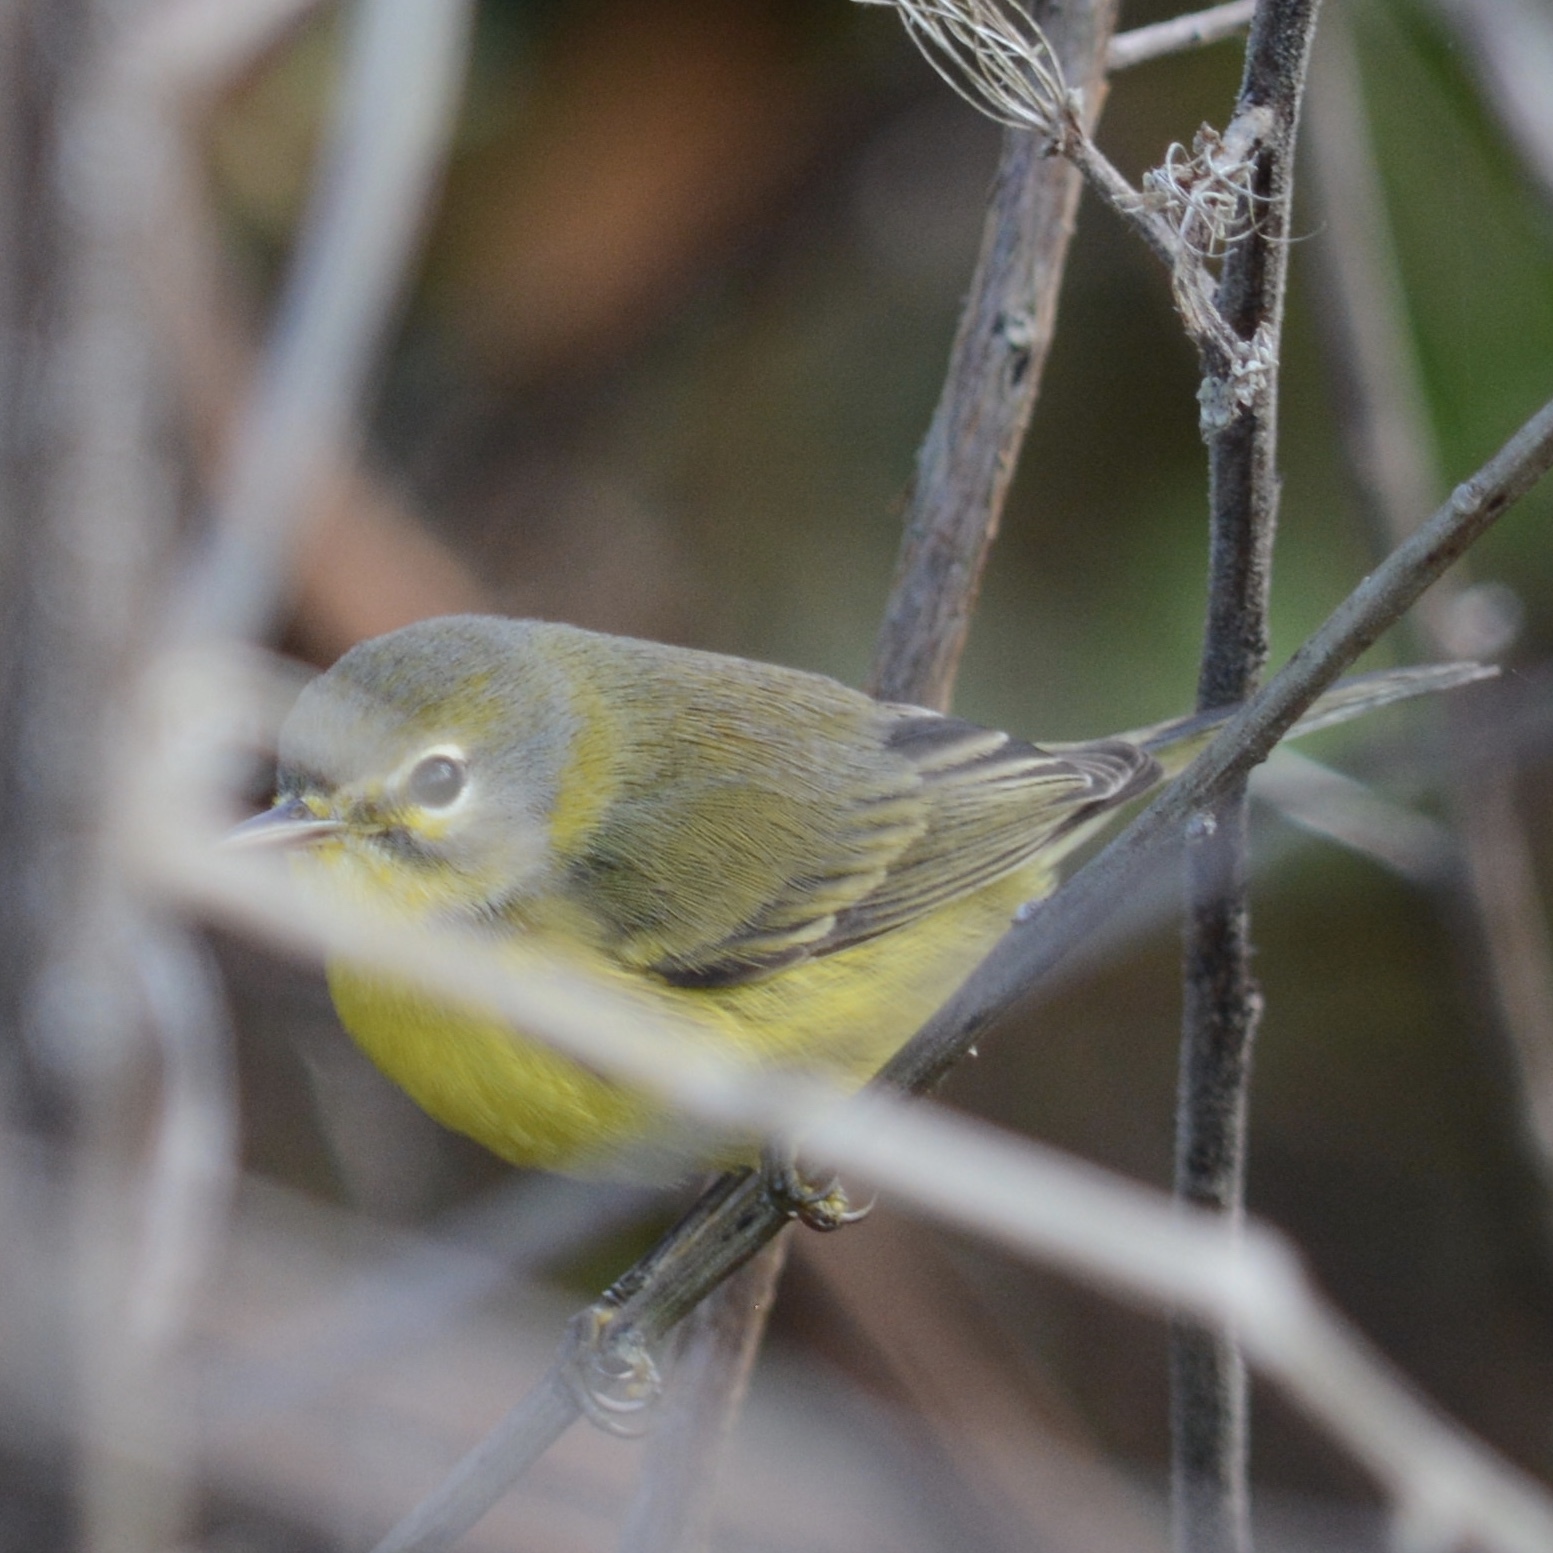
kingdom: Animalia
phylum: Chordata
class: Aves
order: Passeriformes
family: Parulidae
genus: Setophaga
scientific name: Setophaga discolor
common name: Prairie warbler
